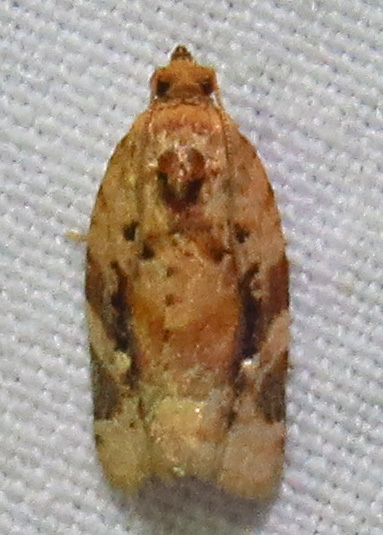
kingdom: Animalia
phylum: Arthropoda
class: Insecta
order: Lepidoptera
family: Tortricidae
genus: Argyrotaenia
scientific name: Argyrotaenia velutinana
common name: Red-banded leafroller moth
